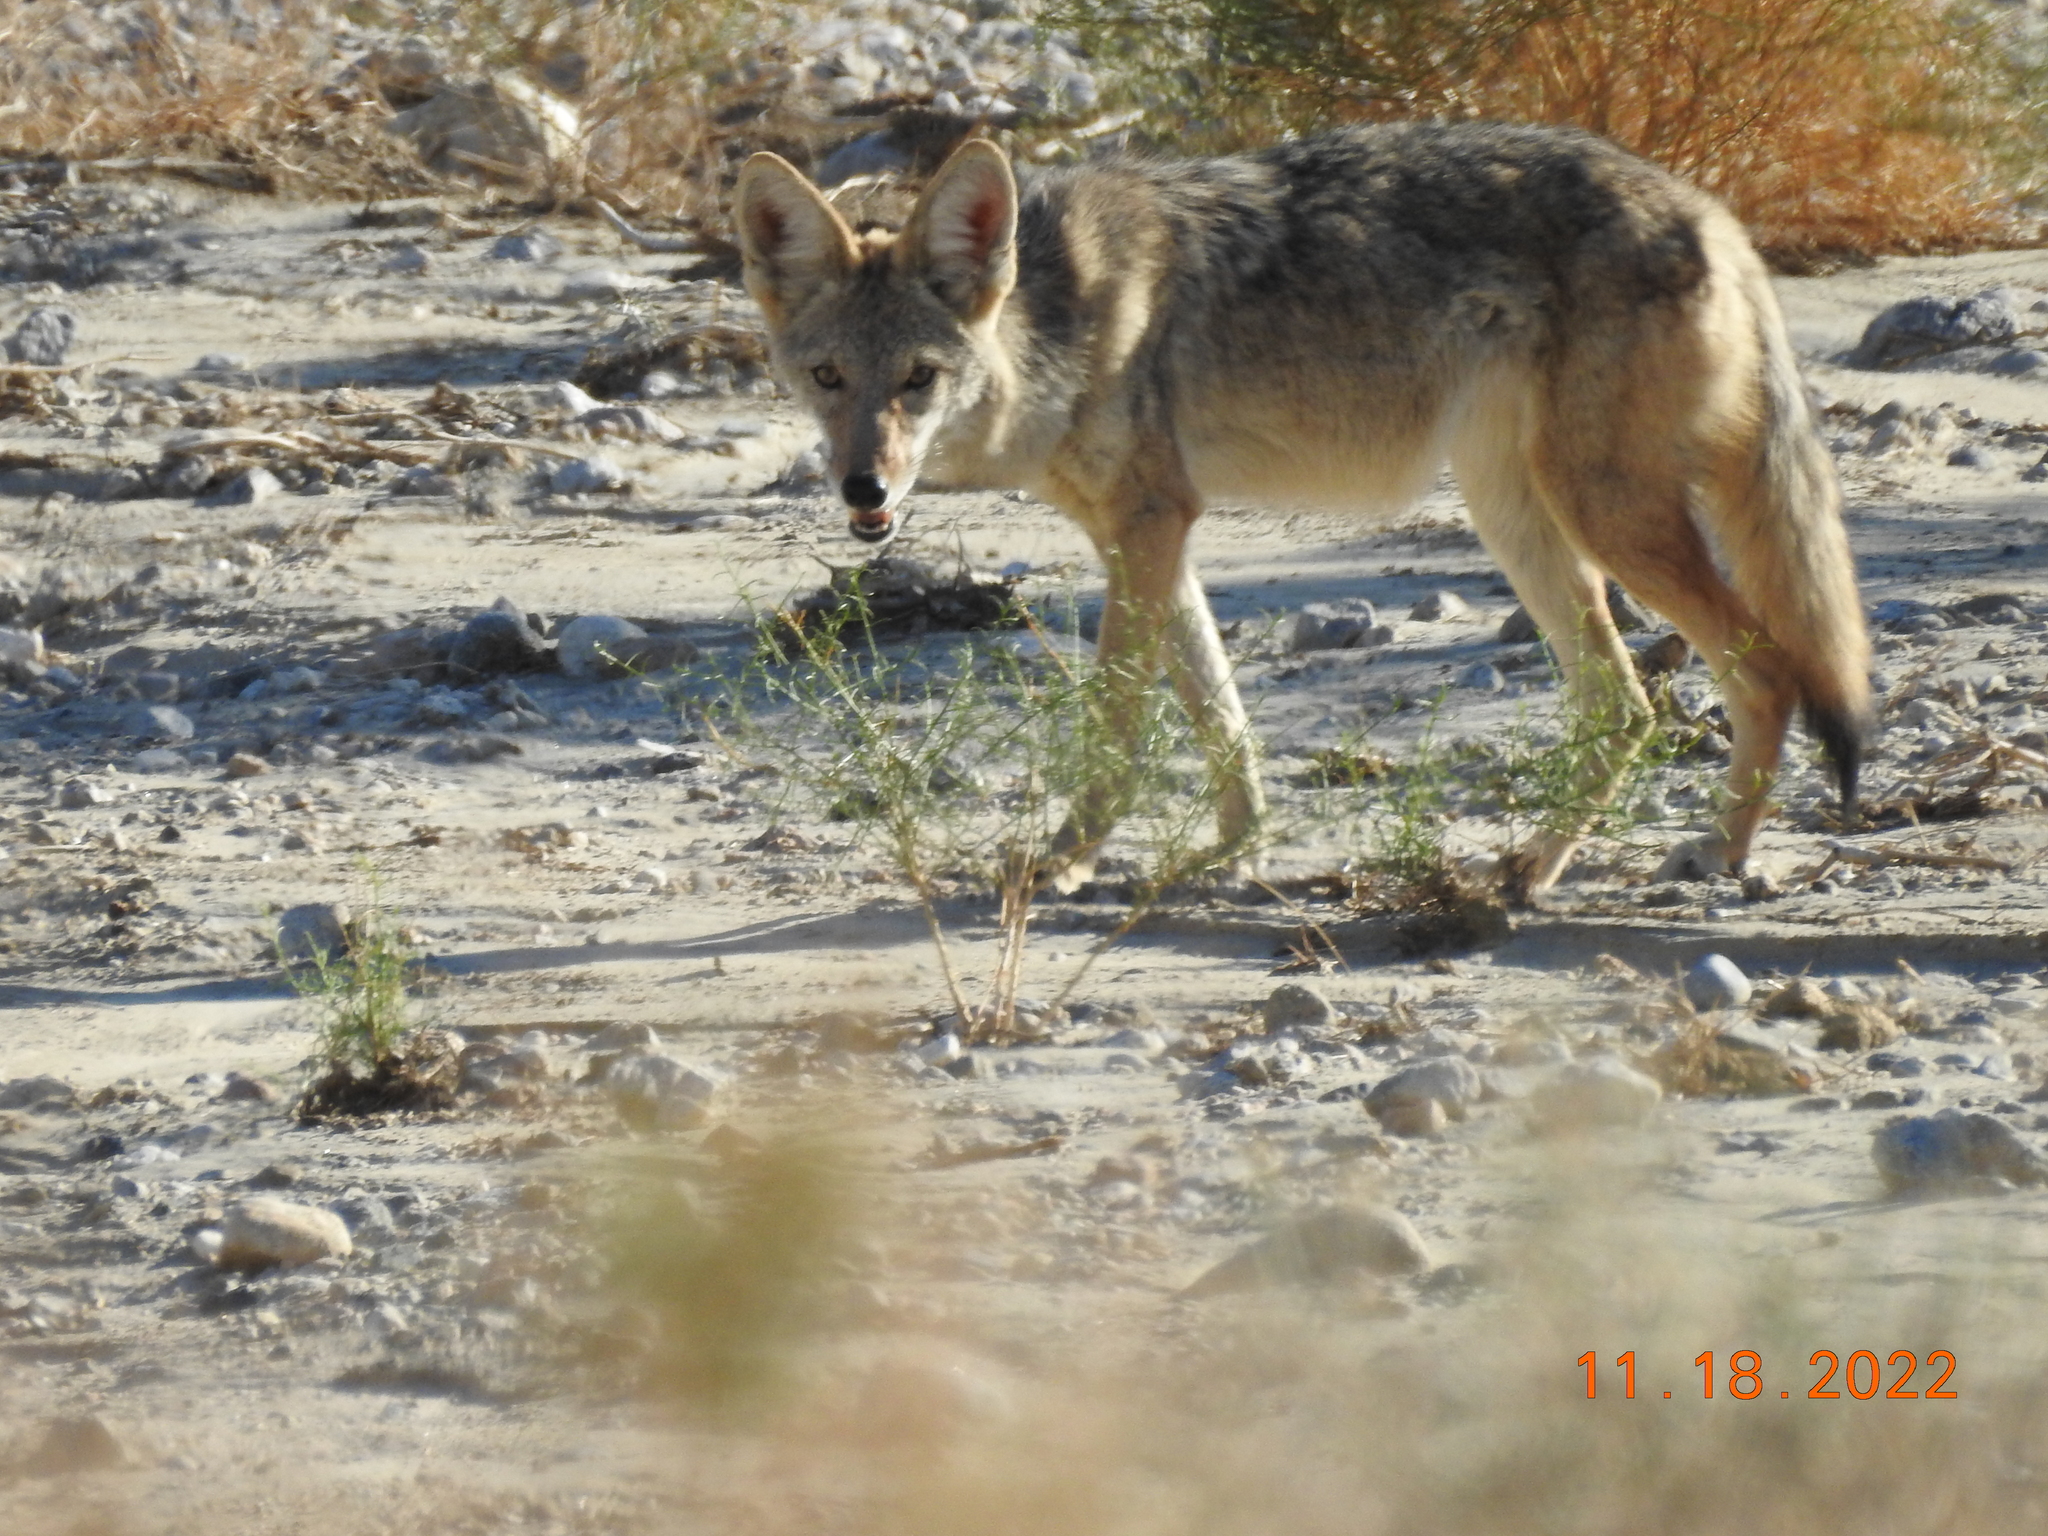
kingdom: Animalia
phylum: Chordata
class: Mammalia
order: Carnivora
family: Canidae
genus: Canis
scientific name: Canis latrans
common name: Coyote
